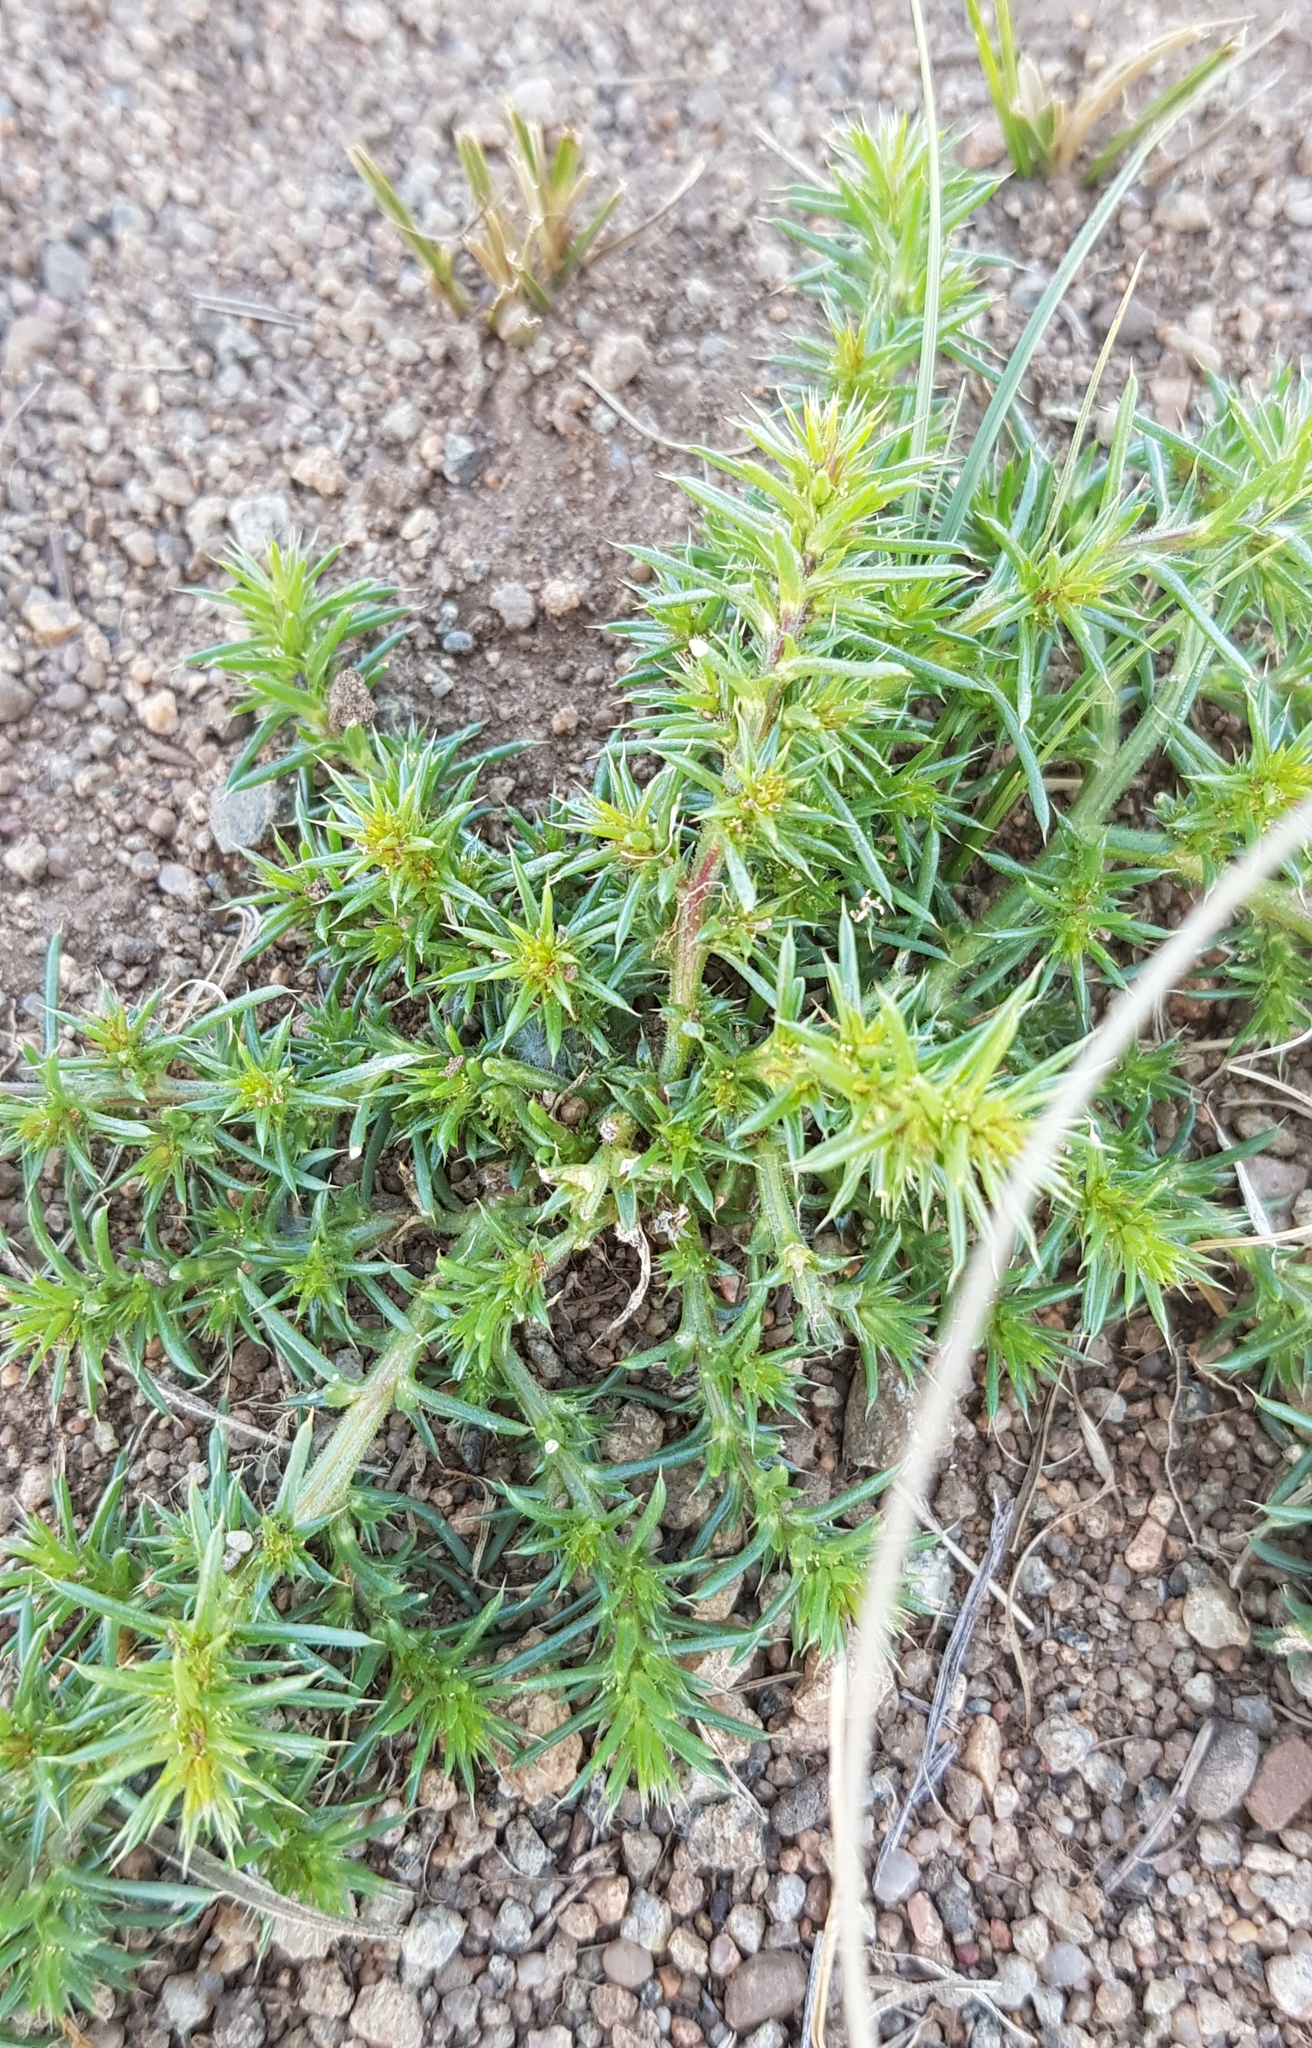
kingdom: Plantae
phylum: Tracheophyta
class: Magnoliopsida
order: Caryophyllales
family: Amaranthaceae
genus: Salsola
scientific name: Salsola collina
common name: Tumbleweed
